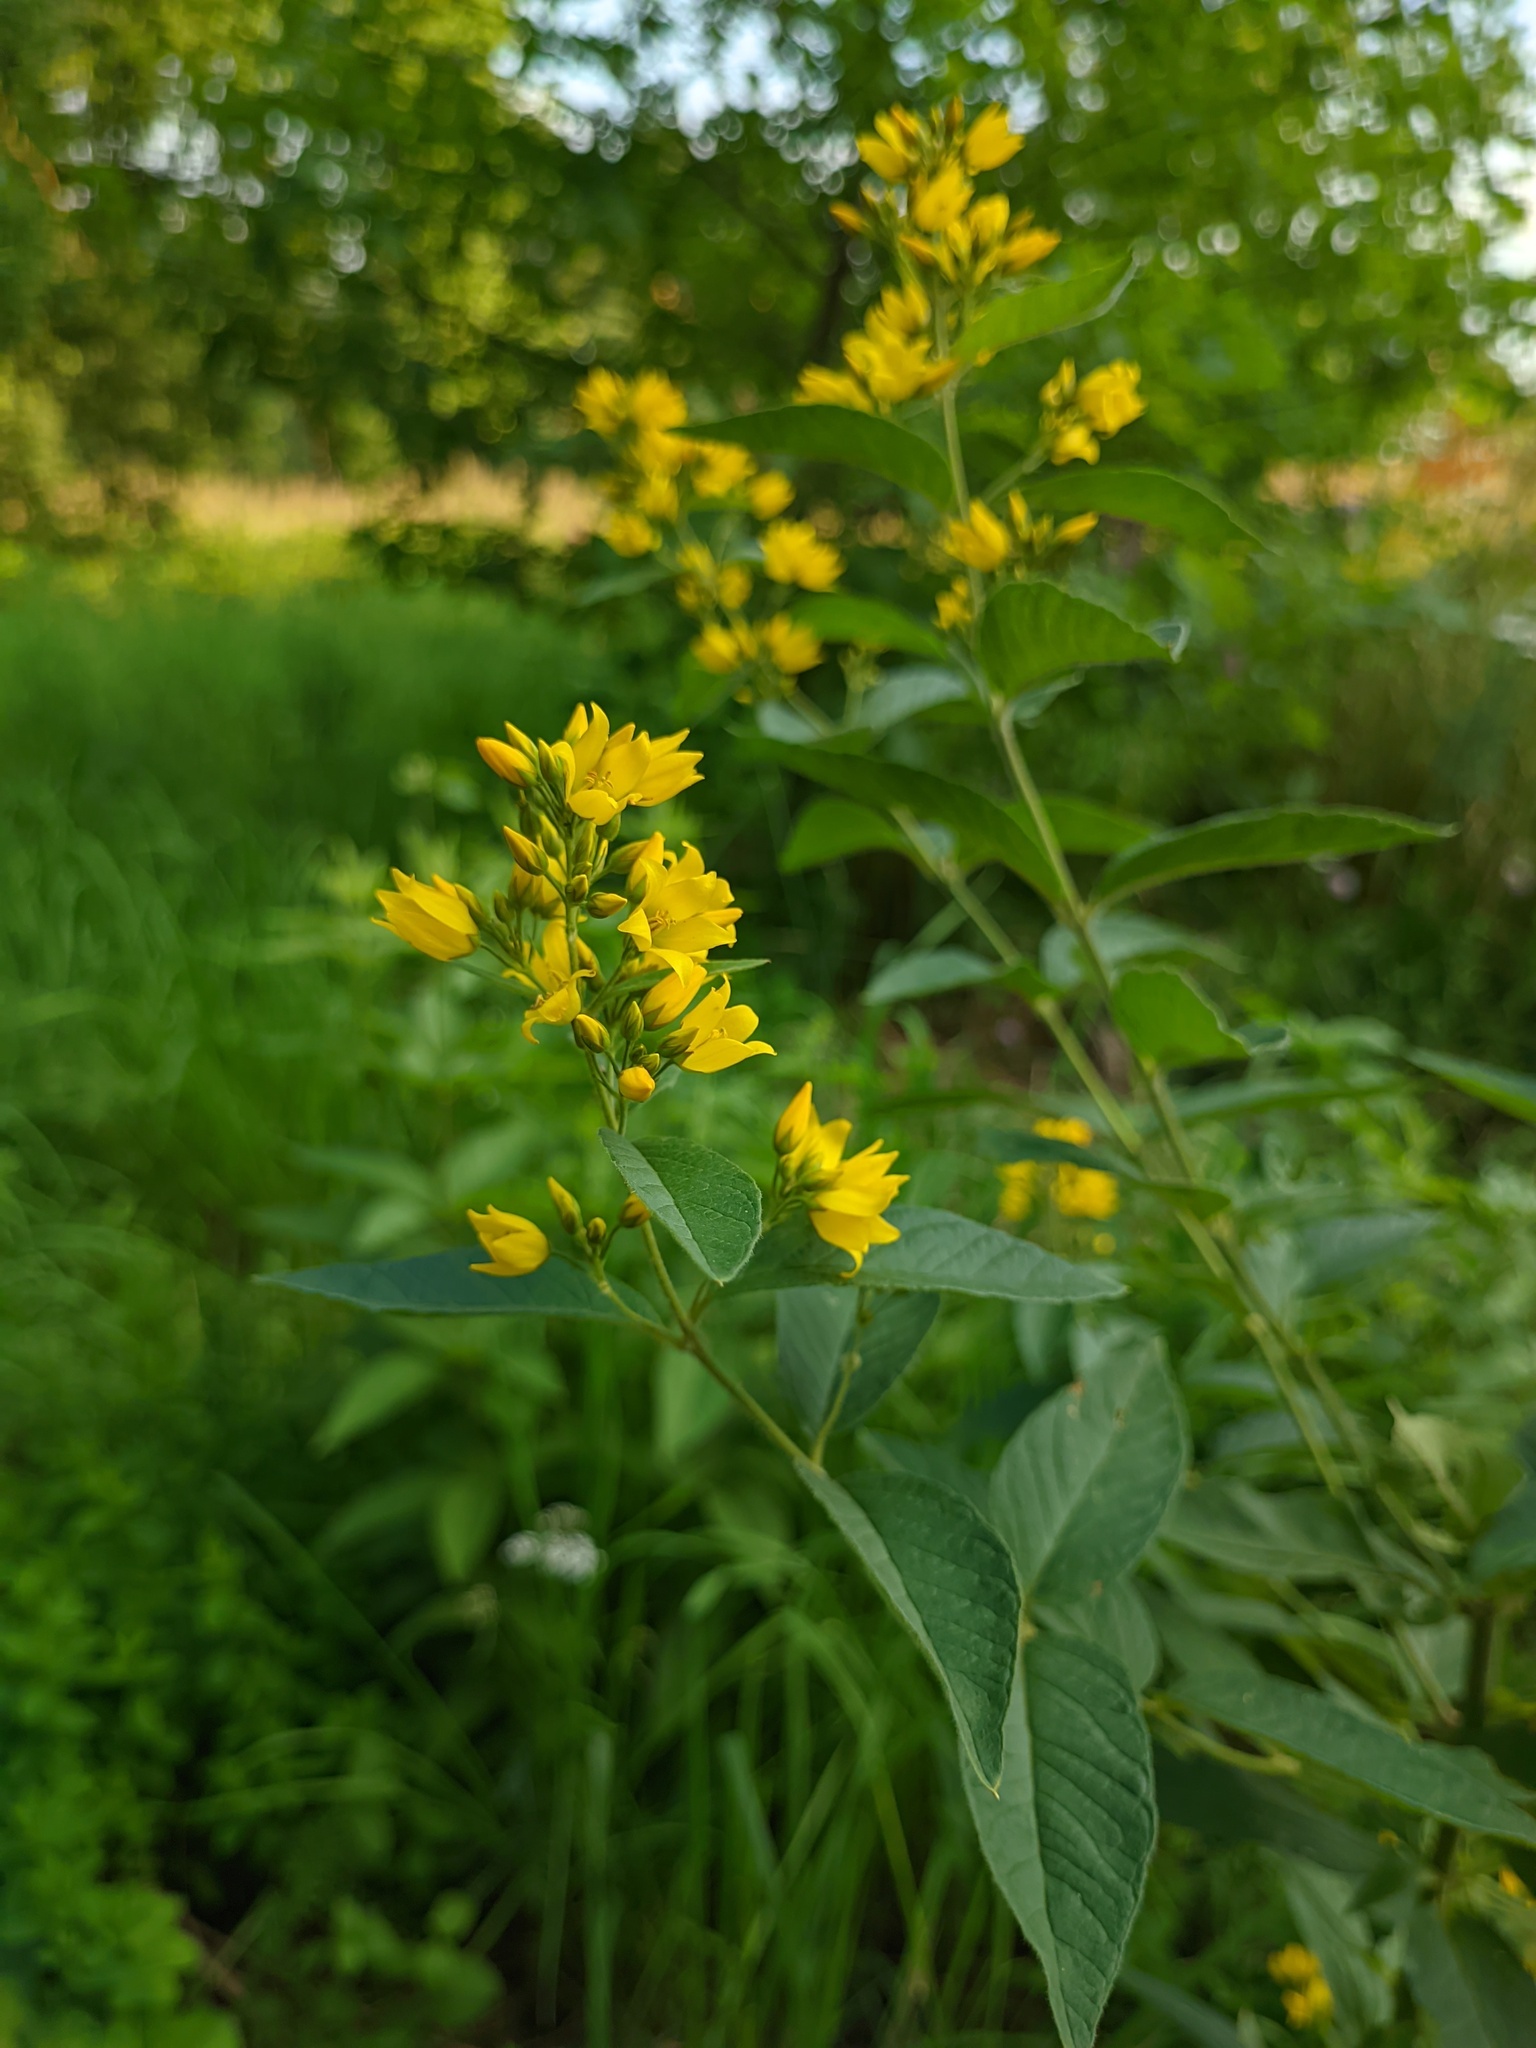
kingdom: Plantae
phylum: Tracheophyta
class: Magnoliopsida
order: Ericales
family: Primulaceae
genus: Lysimachia
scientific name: Lysimachia vulgaris
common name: Yellow loosestrife
